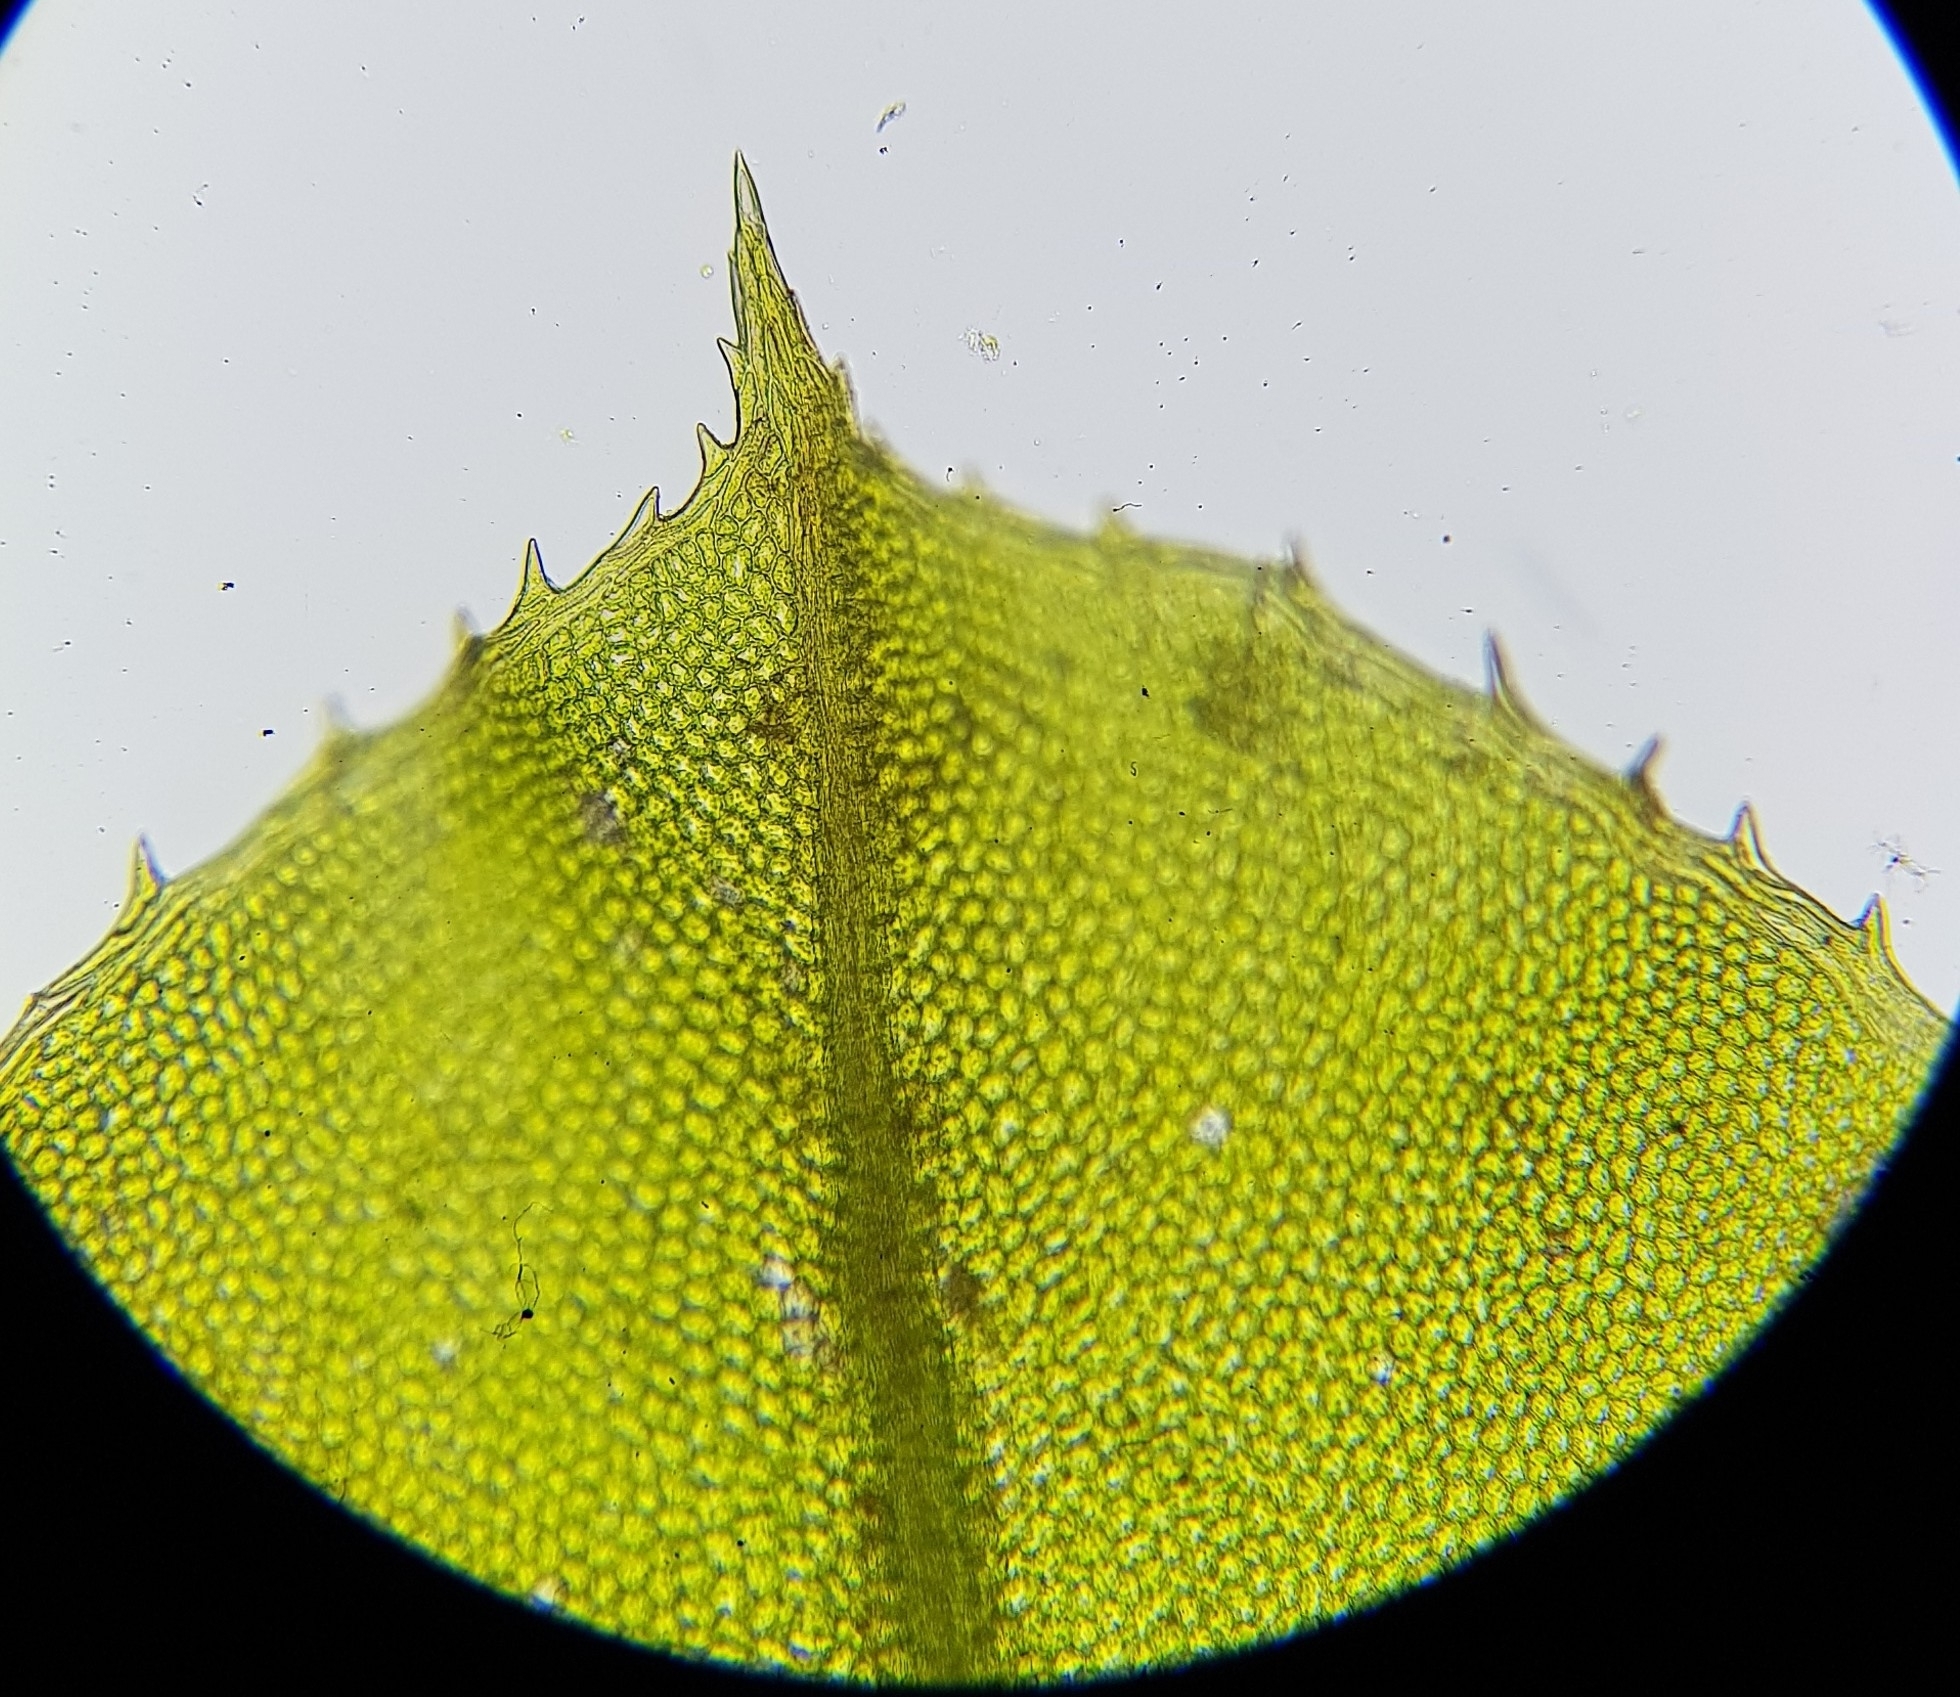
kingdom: Plantae
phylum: Bryophyta
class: Bryopsida
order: Bryales
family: Mniaceae
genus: Plagiomnium
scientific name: Plagiomnium cuspidatum
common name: Woodsy leafy moss
